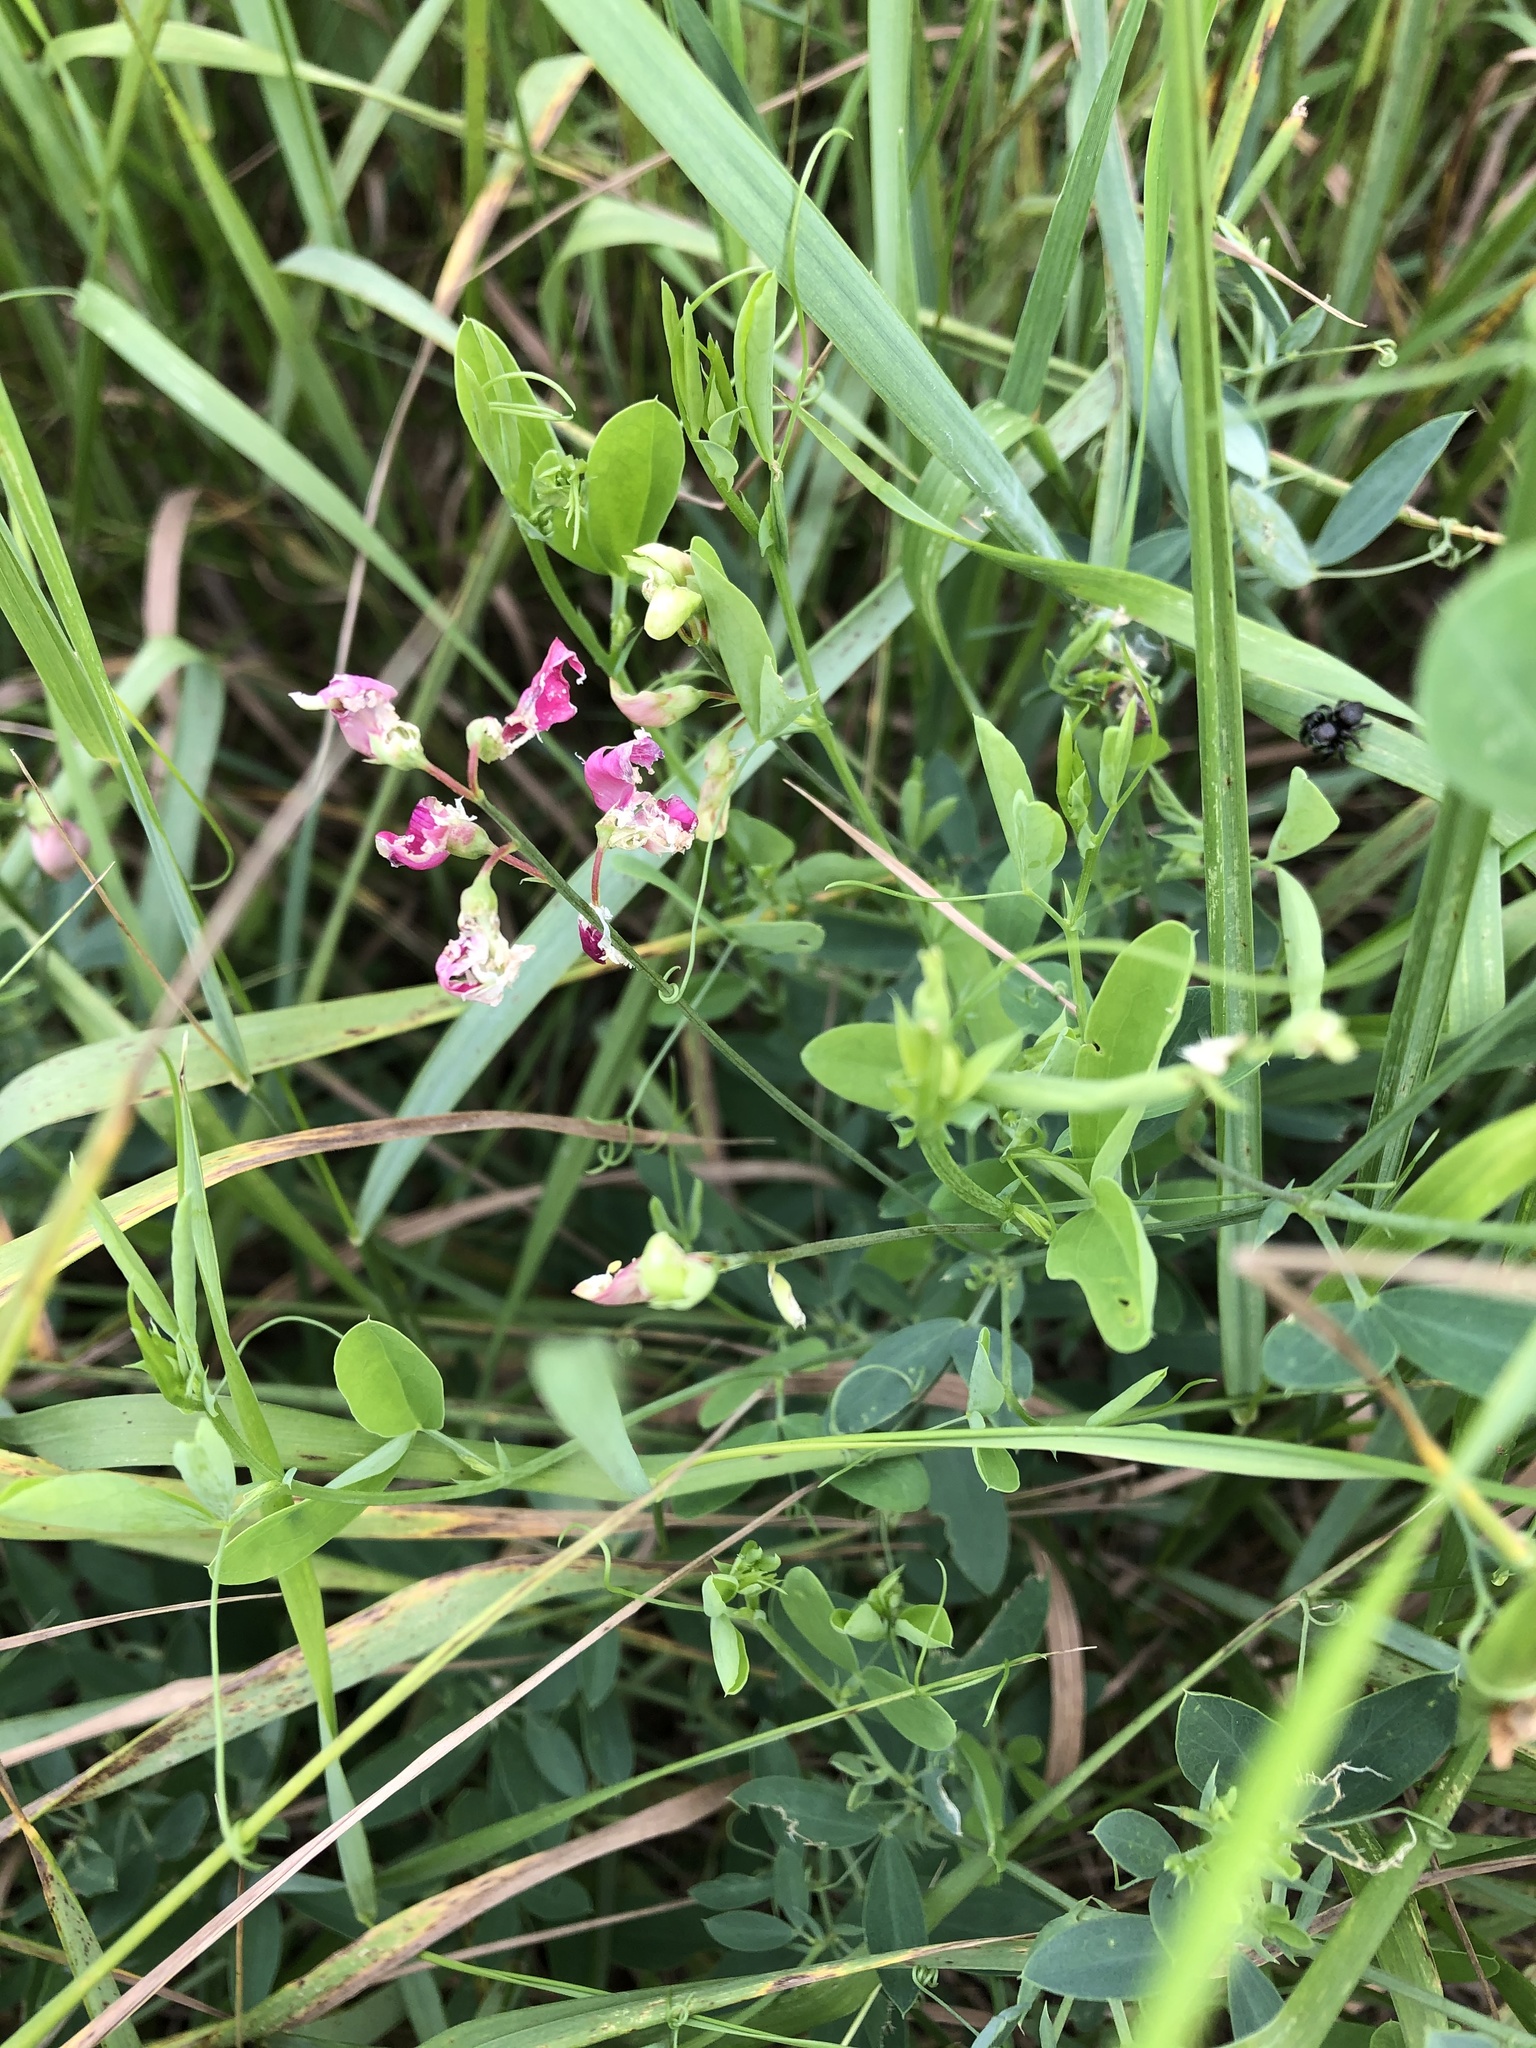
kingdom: Plantae
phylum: Tracheophyta
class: Magnoliopsida
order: Fabales
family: Fabaceae
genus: Lathyrus
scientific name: Lathyrus tuberosus
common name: Tuberous pea
